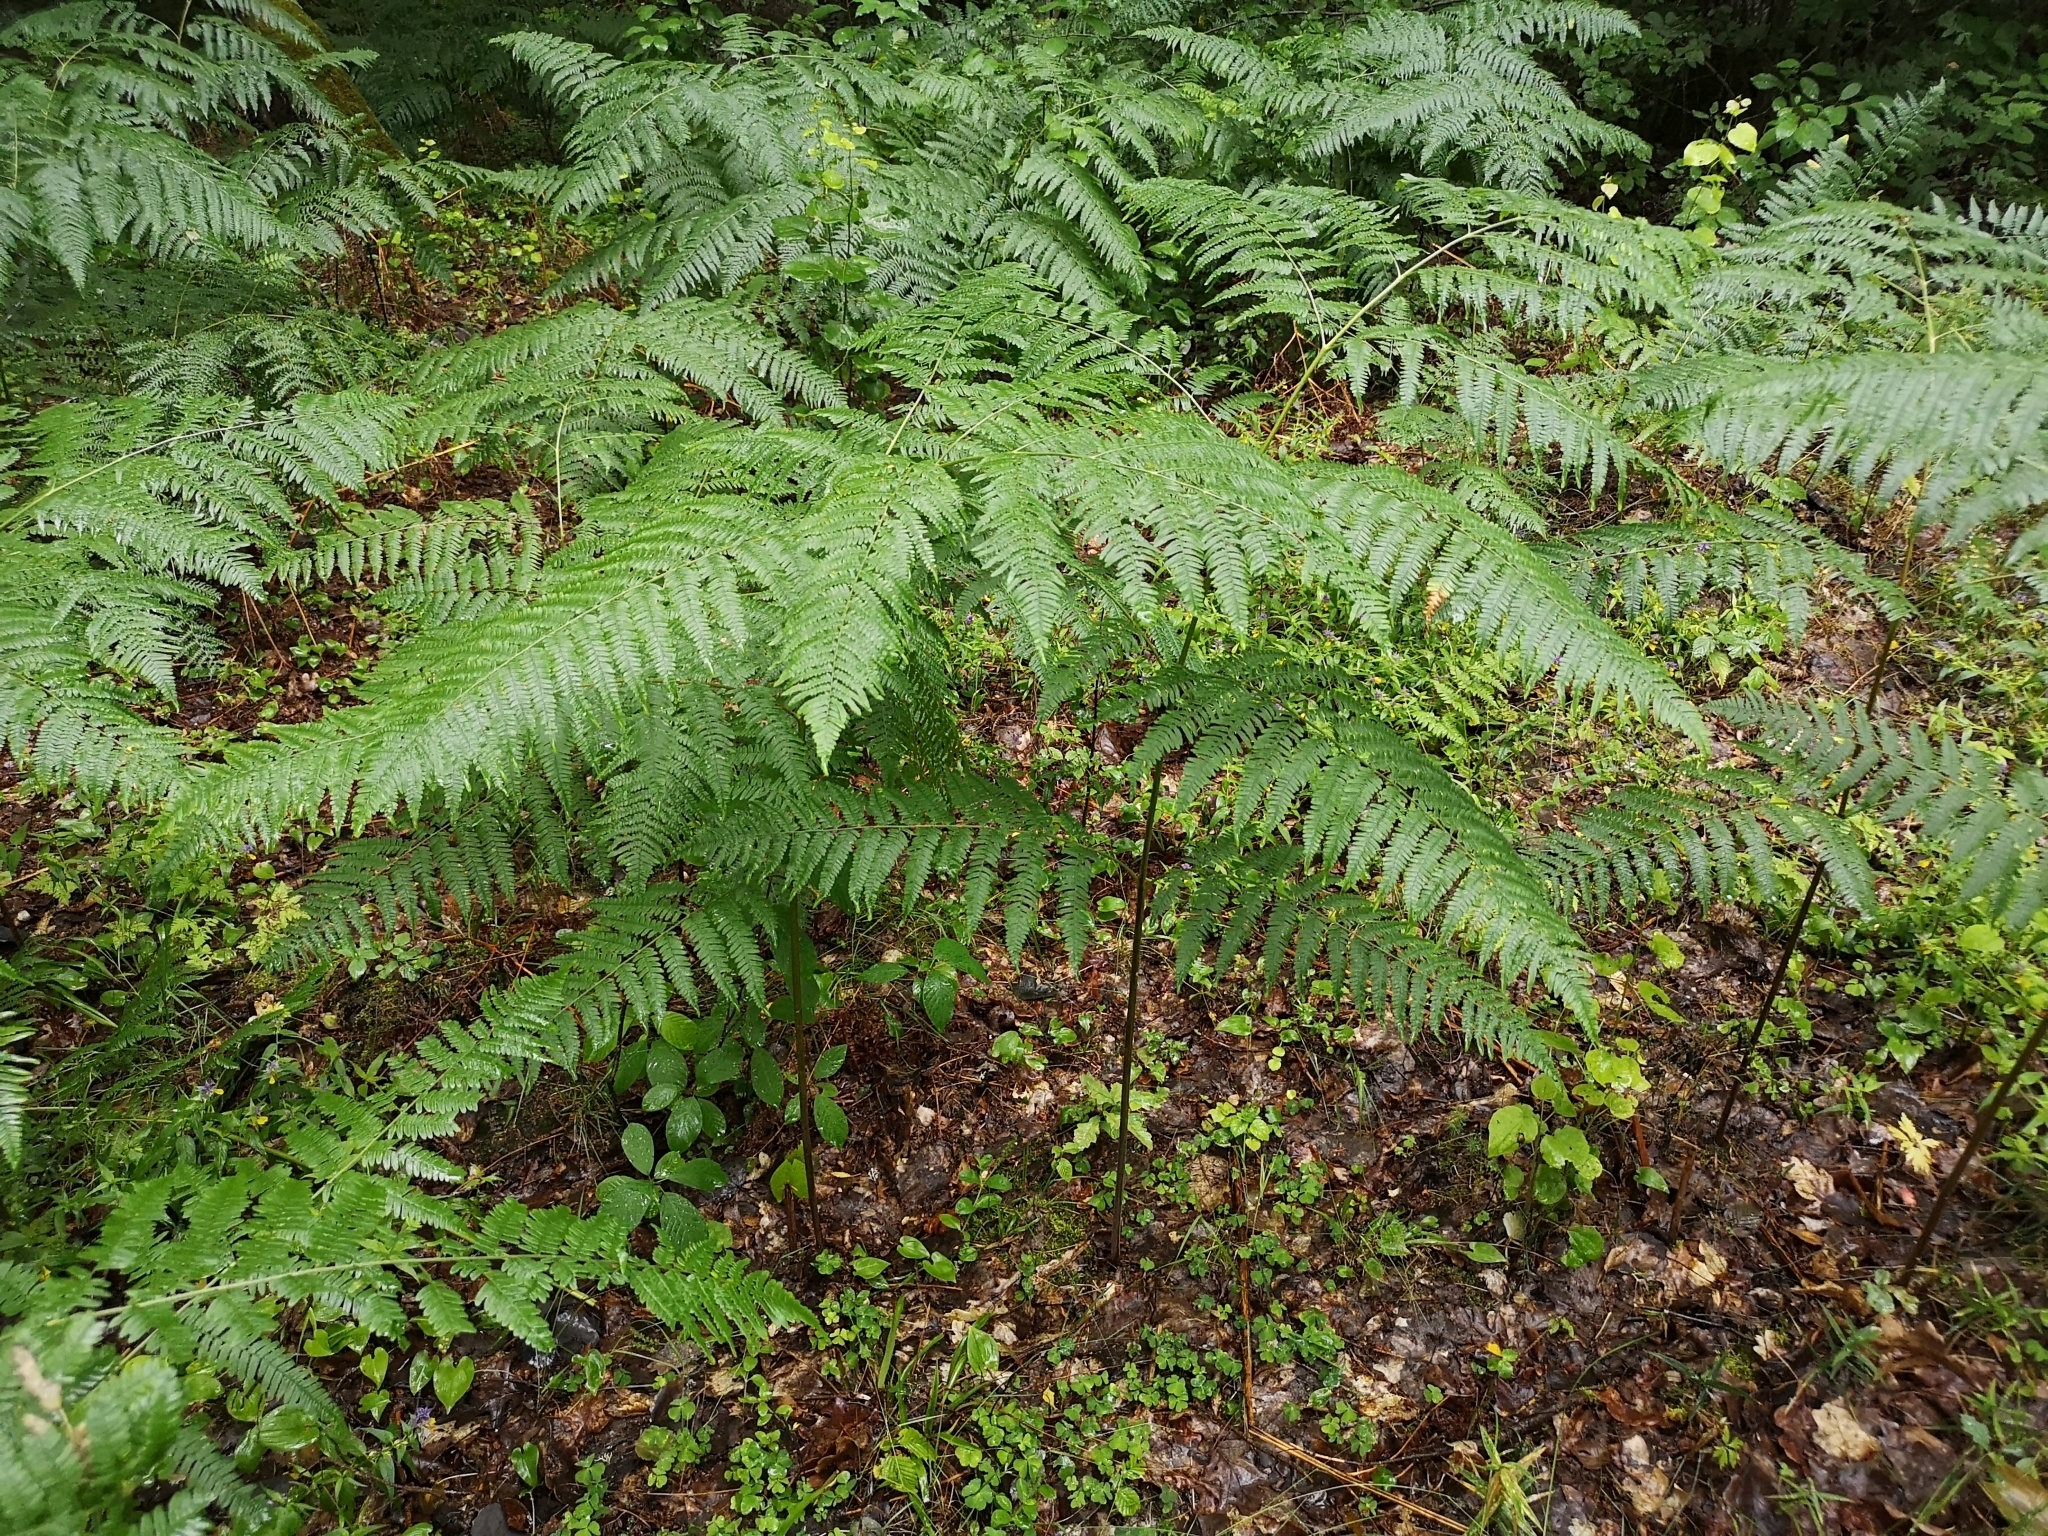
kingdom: Plantae
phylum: Tracheophyta
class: Polypodiopsida
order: Polypodiales
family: Dennstaedtiaceae
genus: Pteridium
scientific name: Pteridium aquilinum
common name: Bracken
